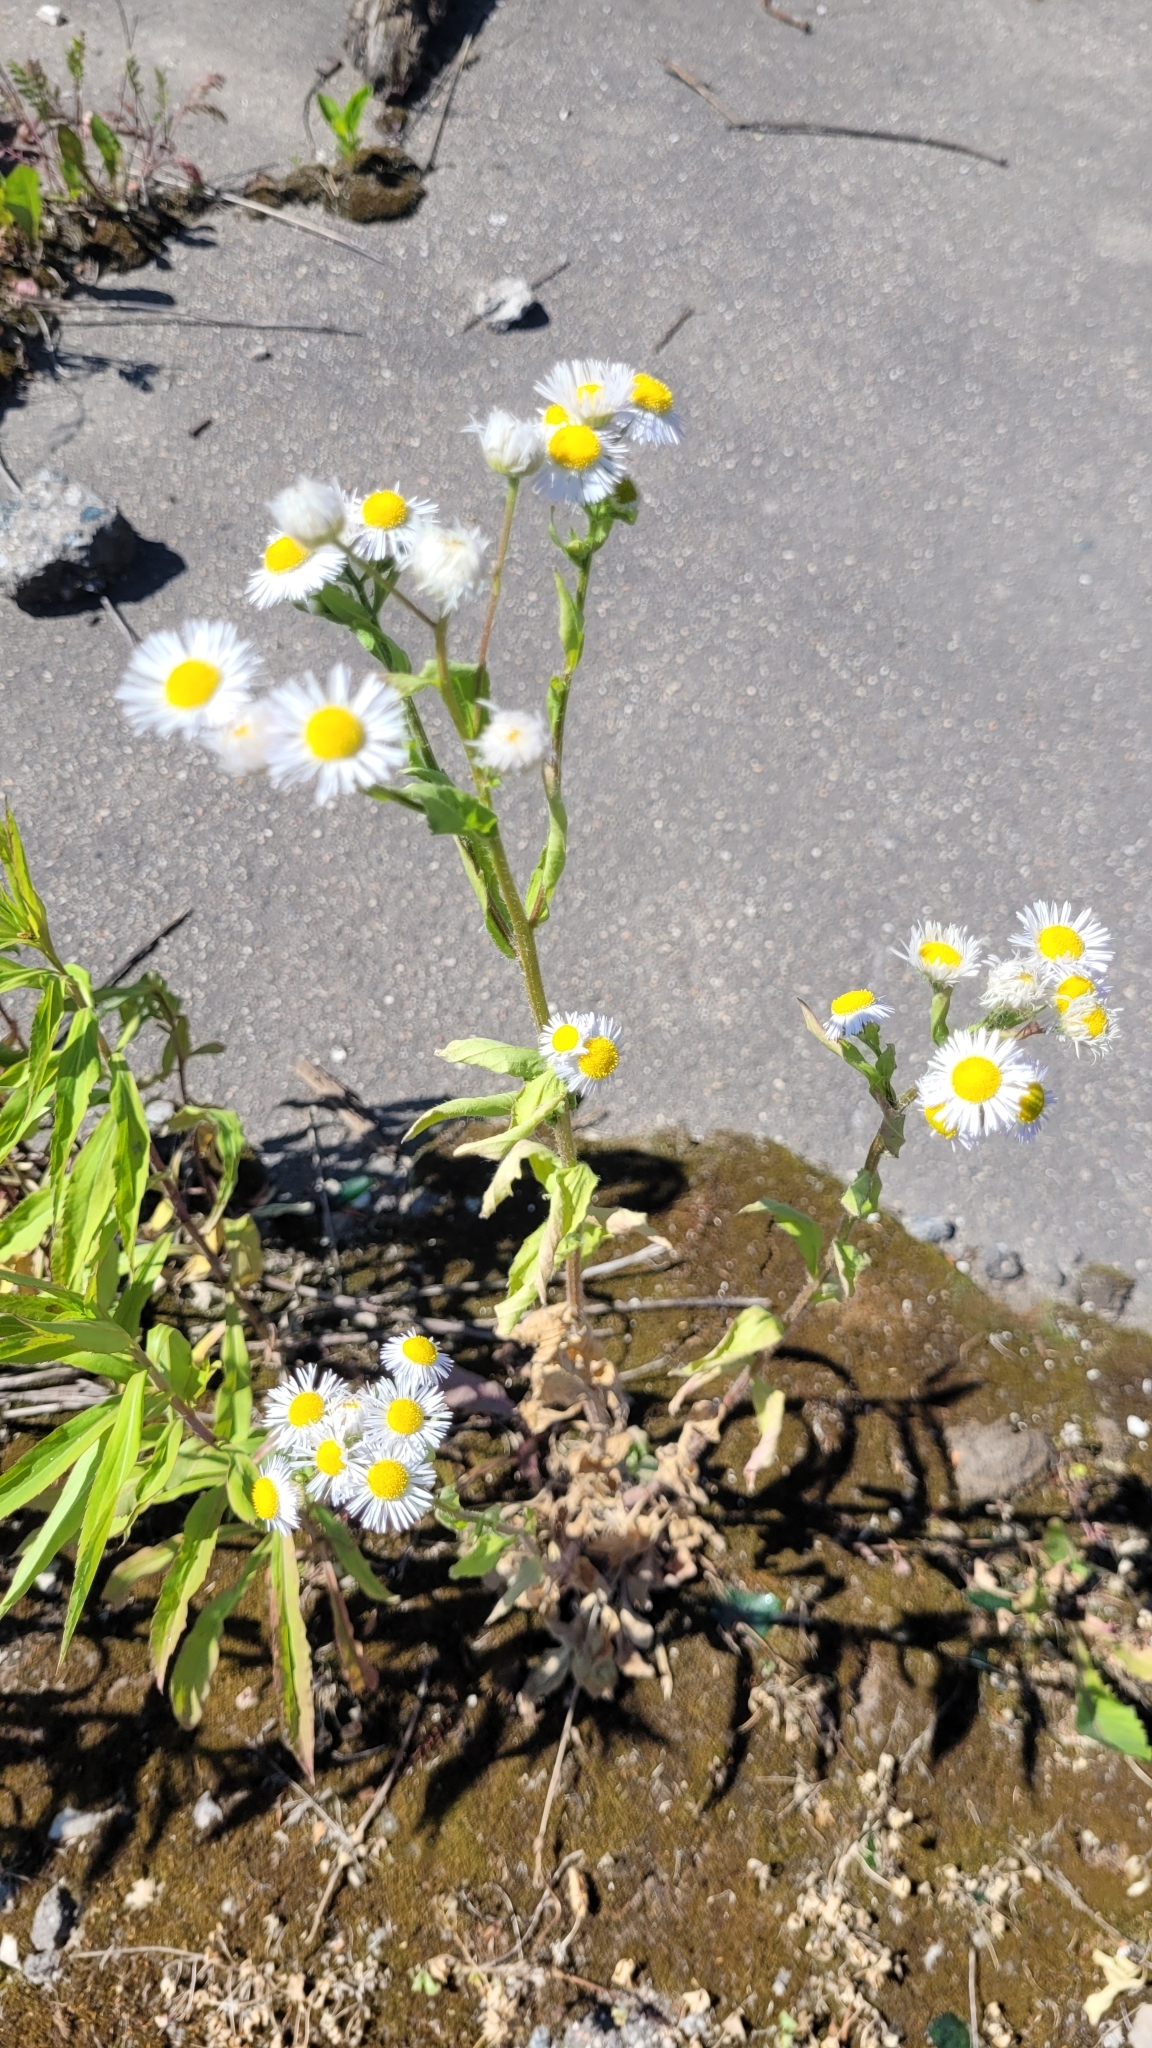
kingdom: Plantae
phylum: Tracheophyta
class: Magnoliopsida
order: Asterales
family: Asteraceae
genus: Erigeron
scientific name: Erigeron annuus
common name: Tall fleabane
